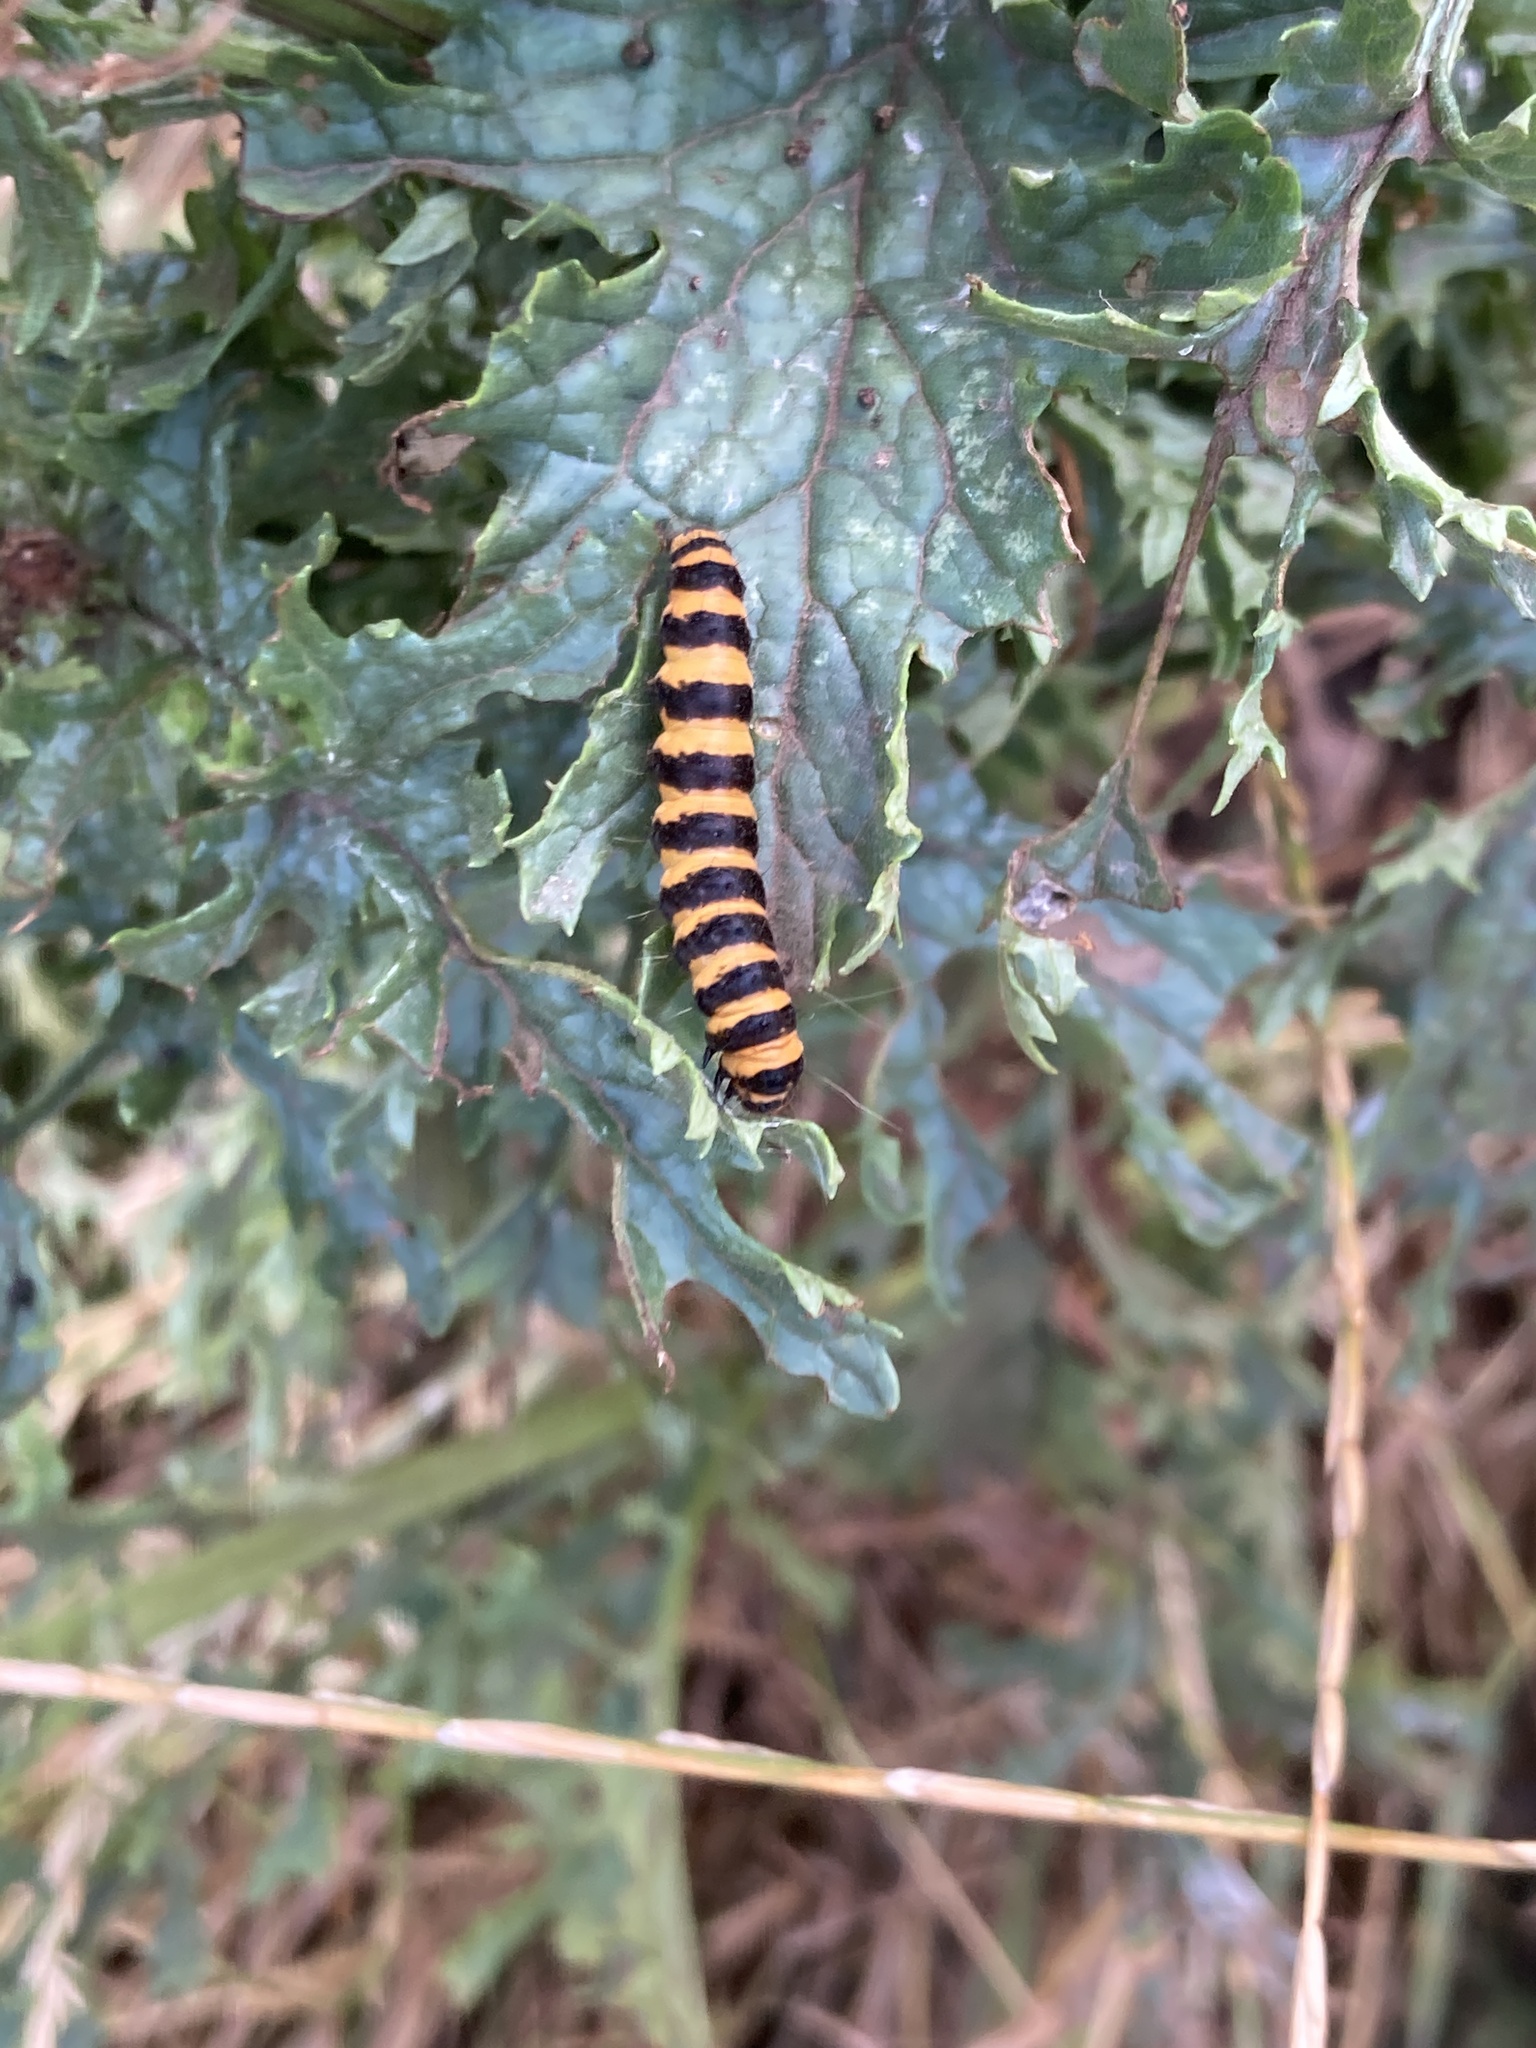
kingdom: Animalia
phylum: Arthropoda
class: Insecta
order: Lepidoptera
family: Erebidae
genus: Tyria
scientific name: Tyria jacobaeae
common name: Cinnabar
